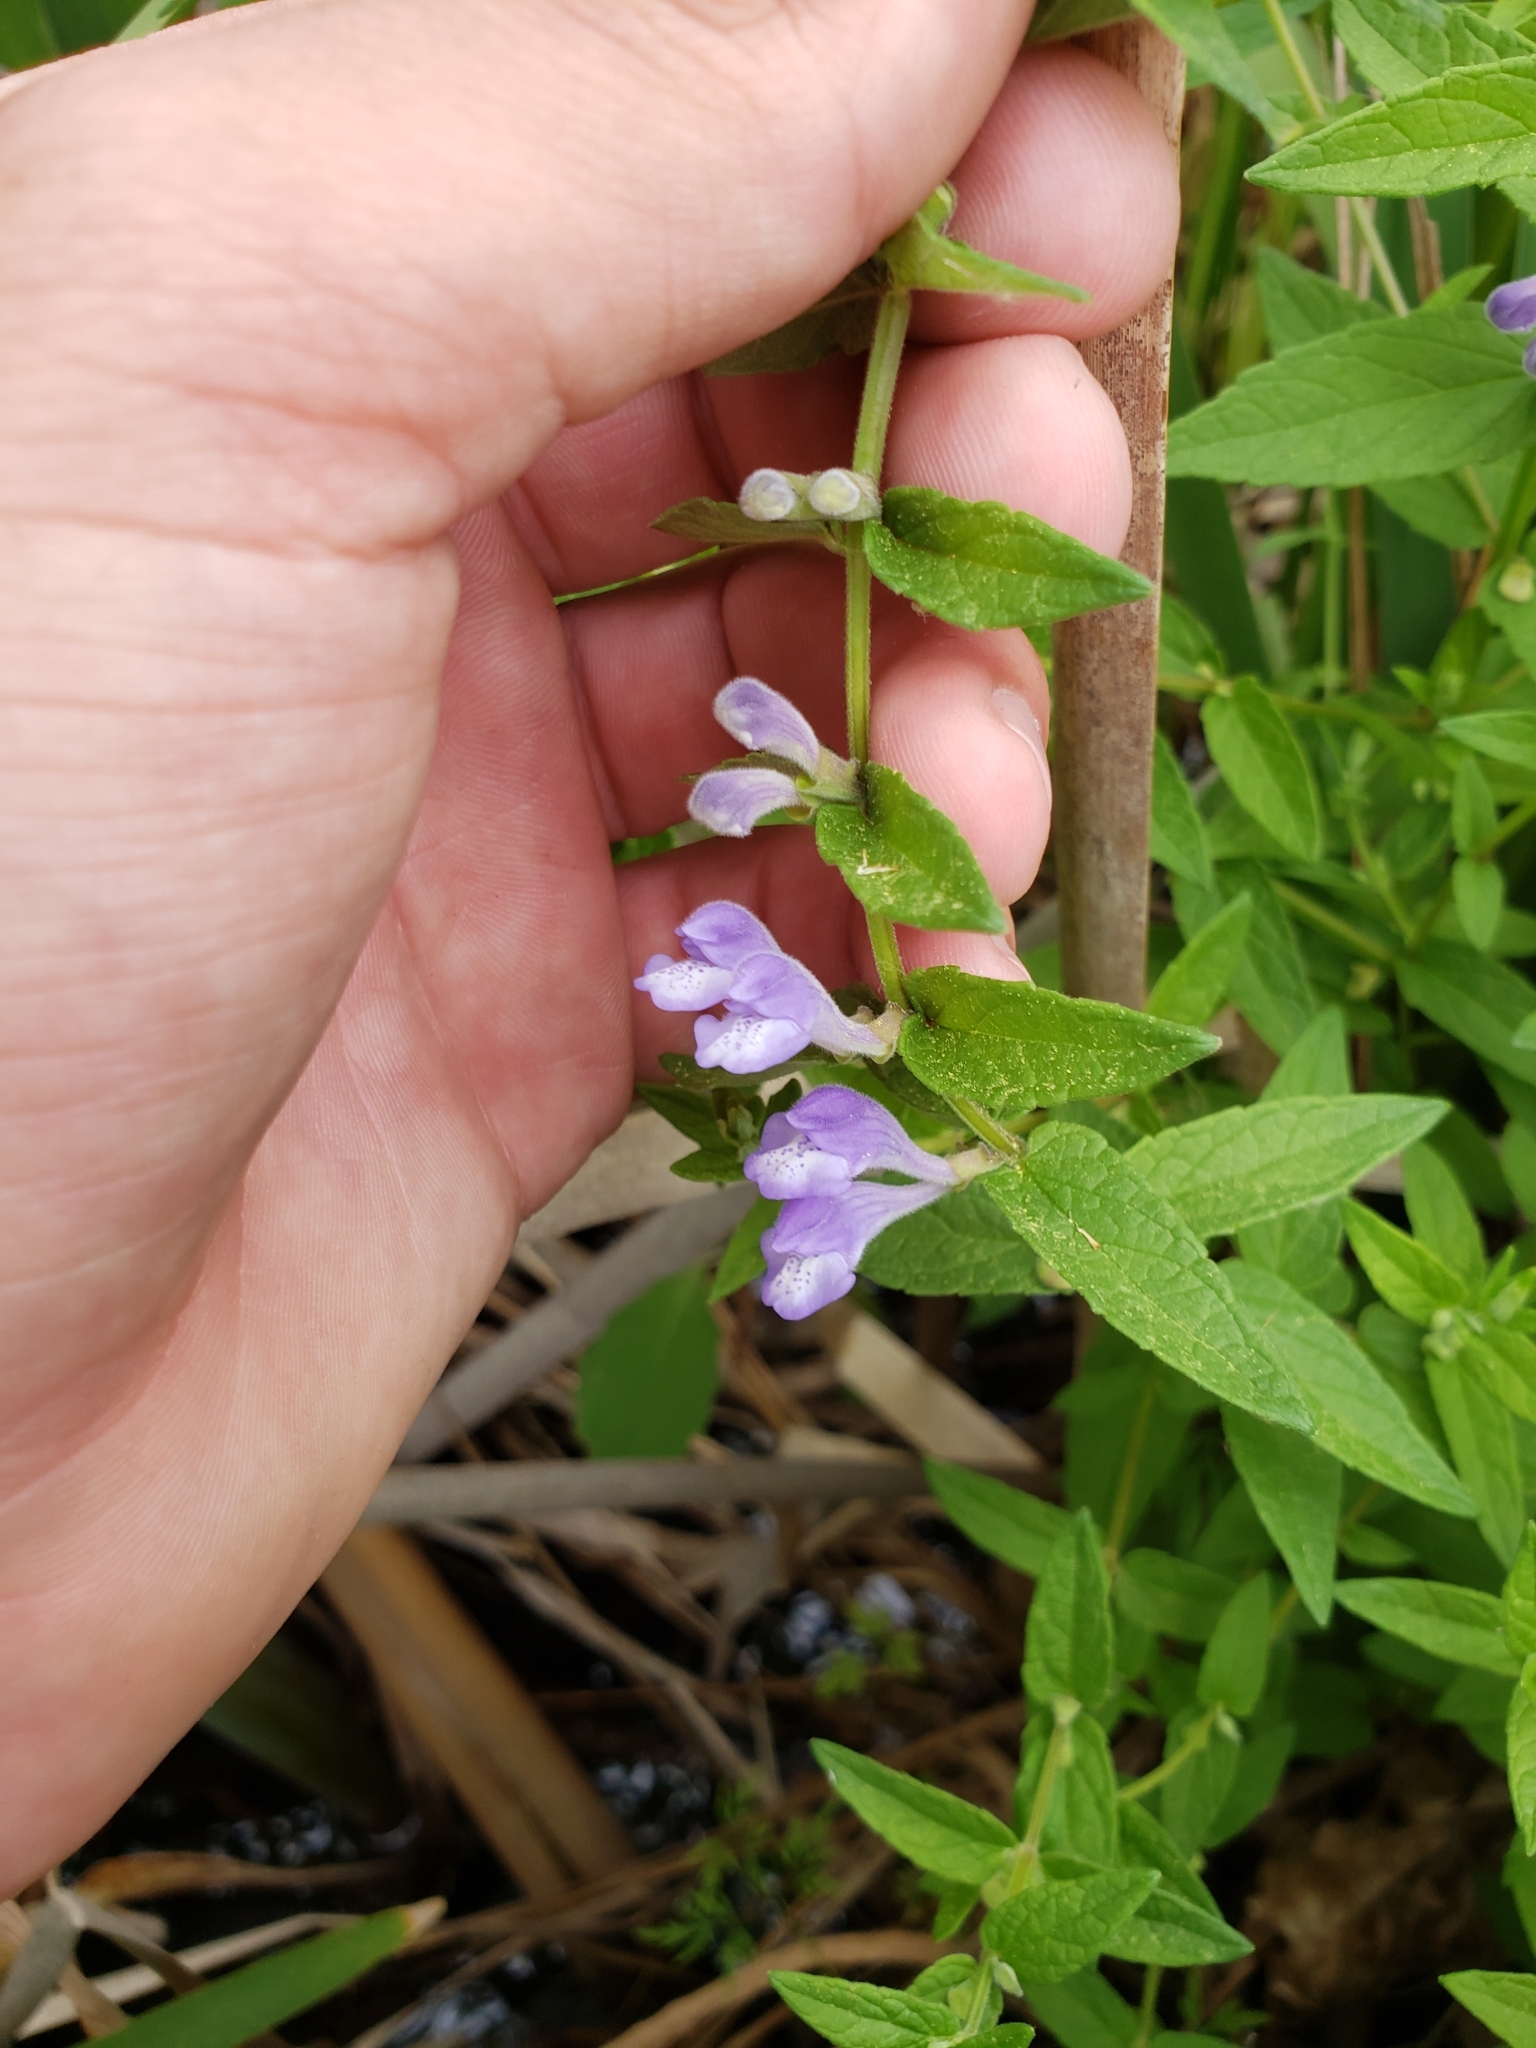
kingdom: Plantae
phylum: Tracheophyta
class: Magnoliopsida
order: Lamiales
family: Lamiaceae
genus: Scutellaria
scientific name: Scutellaria galericulata
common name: Skullcap
